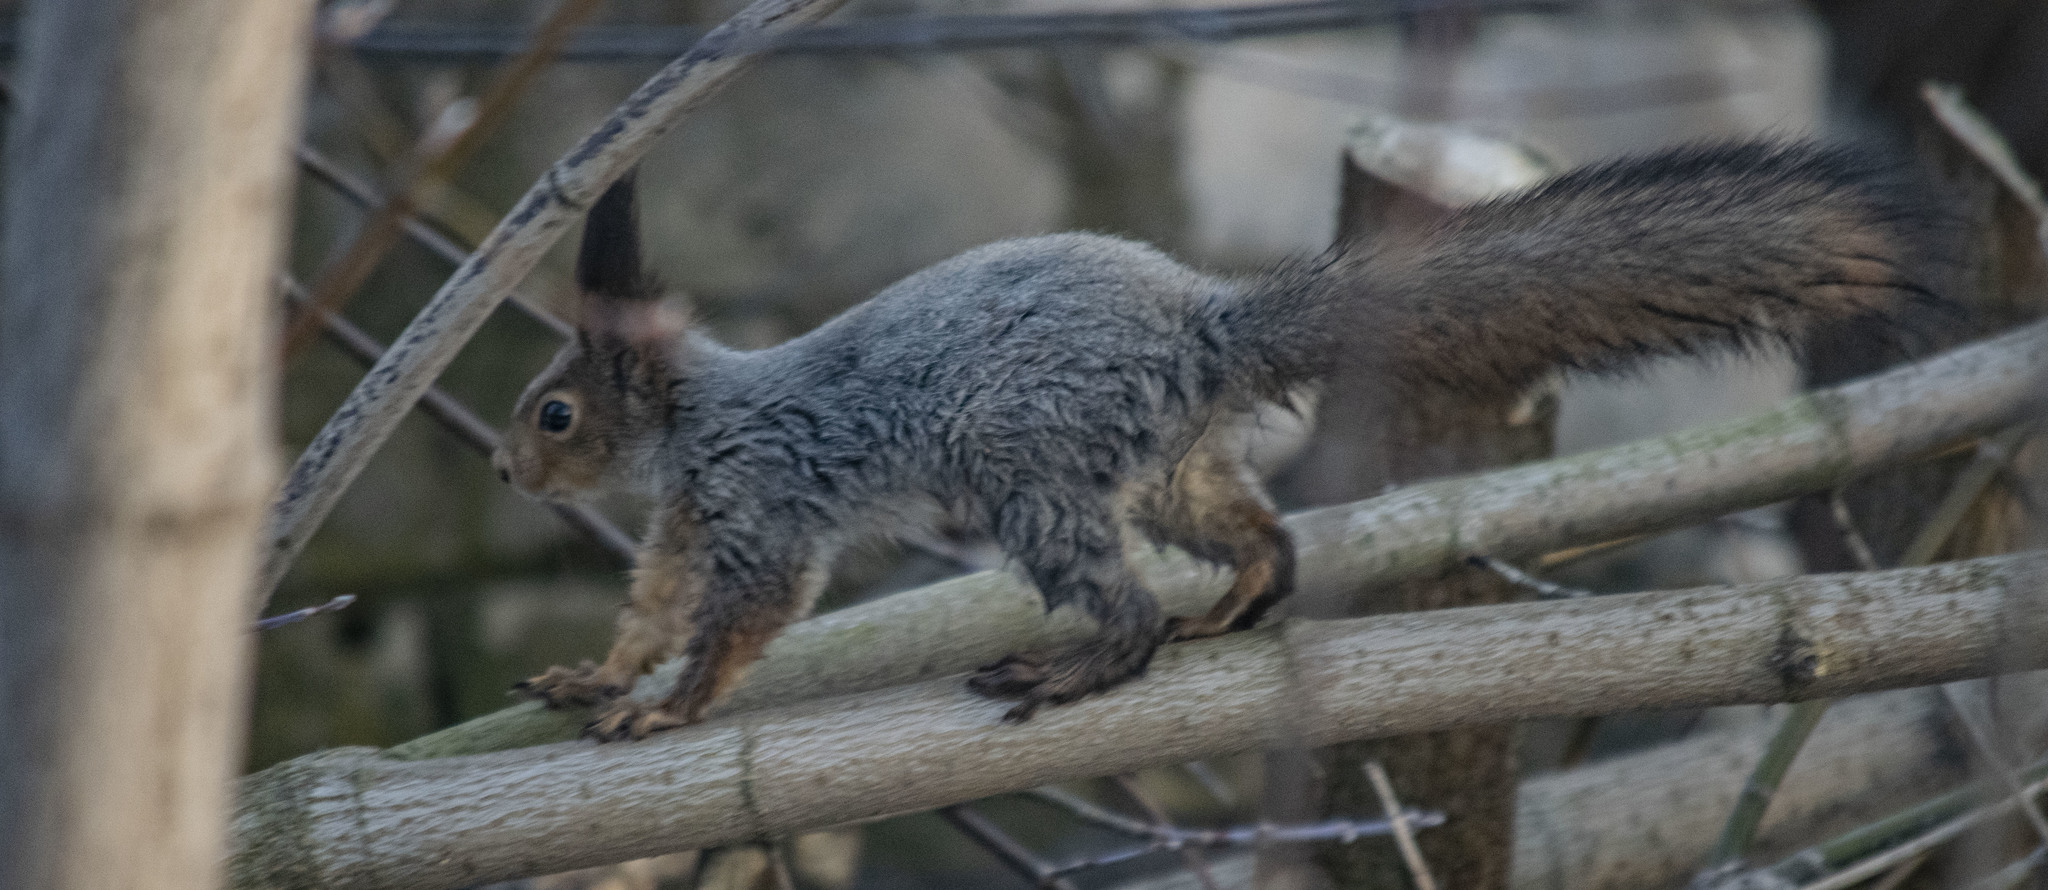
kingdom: Animalia
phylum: Chordata
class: Mammalia
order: Rodentia
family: Sciuridae
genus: Sciurus
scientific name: Sciurus vulgaris
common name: Eurasian red squirrel
